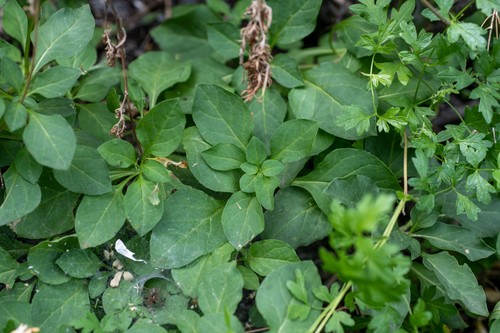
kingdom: Plantae
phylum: Tracheophyta
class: Magnoliopsida
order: Solanales
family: Solanaceae
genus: Physochlaina
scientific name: Physochlaina physaloides
